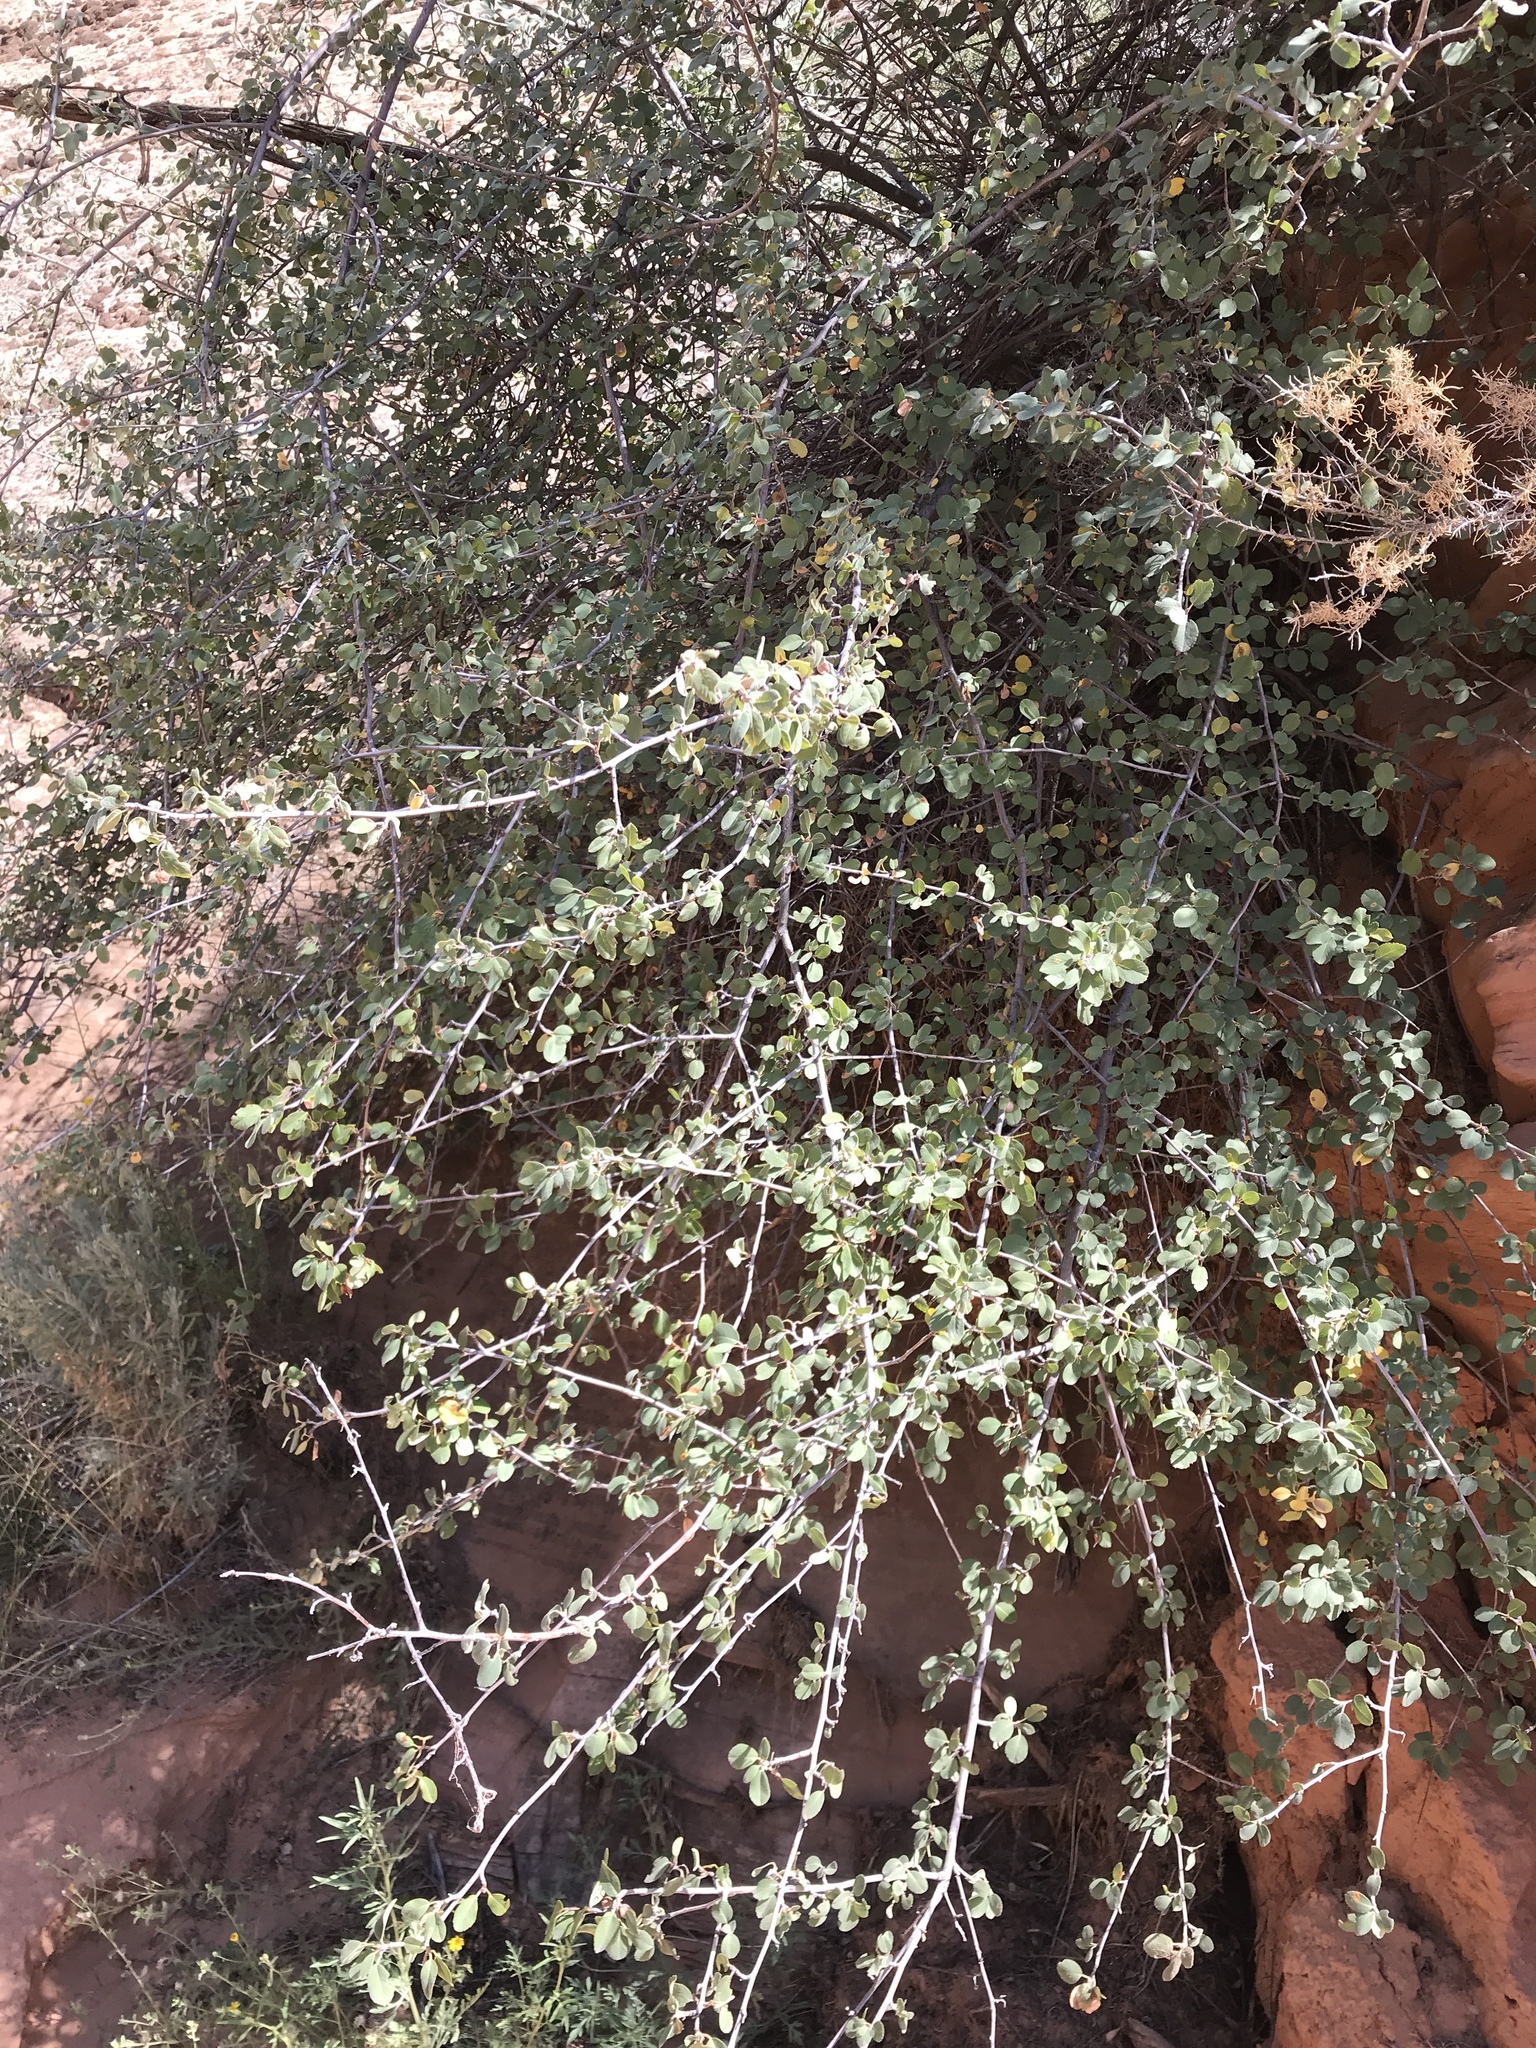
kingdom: Plantae
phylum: Tracheophyta
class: Magnoliopsida
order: Rosales
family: Rosaceae
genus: Amelanchier
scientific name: Amelanchier utahensis
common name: Utah serviceberry
